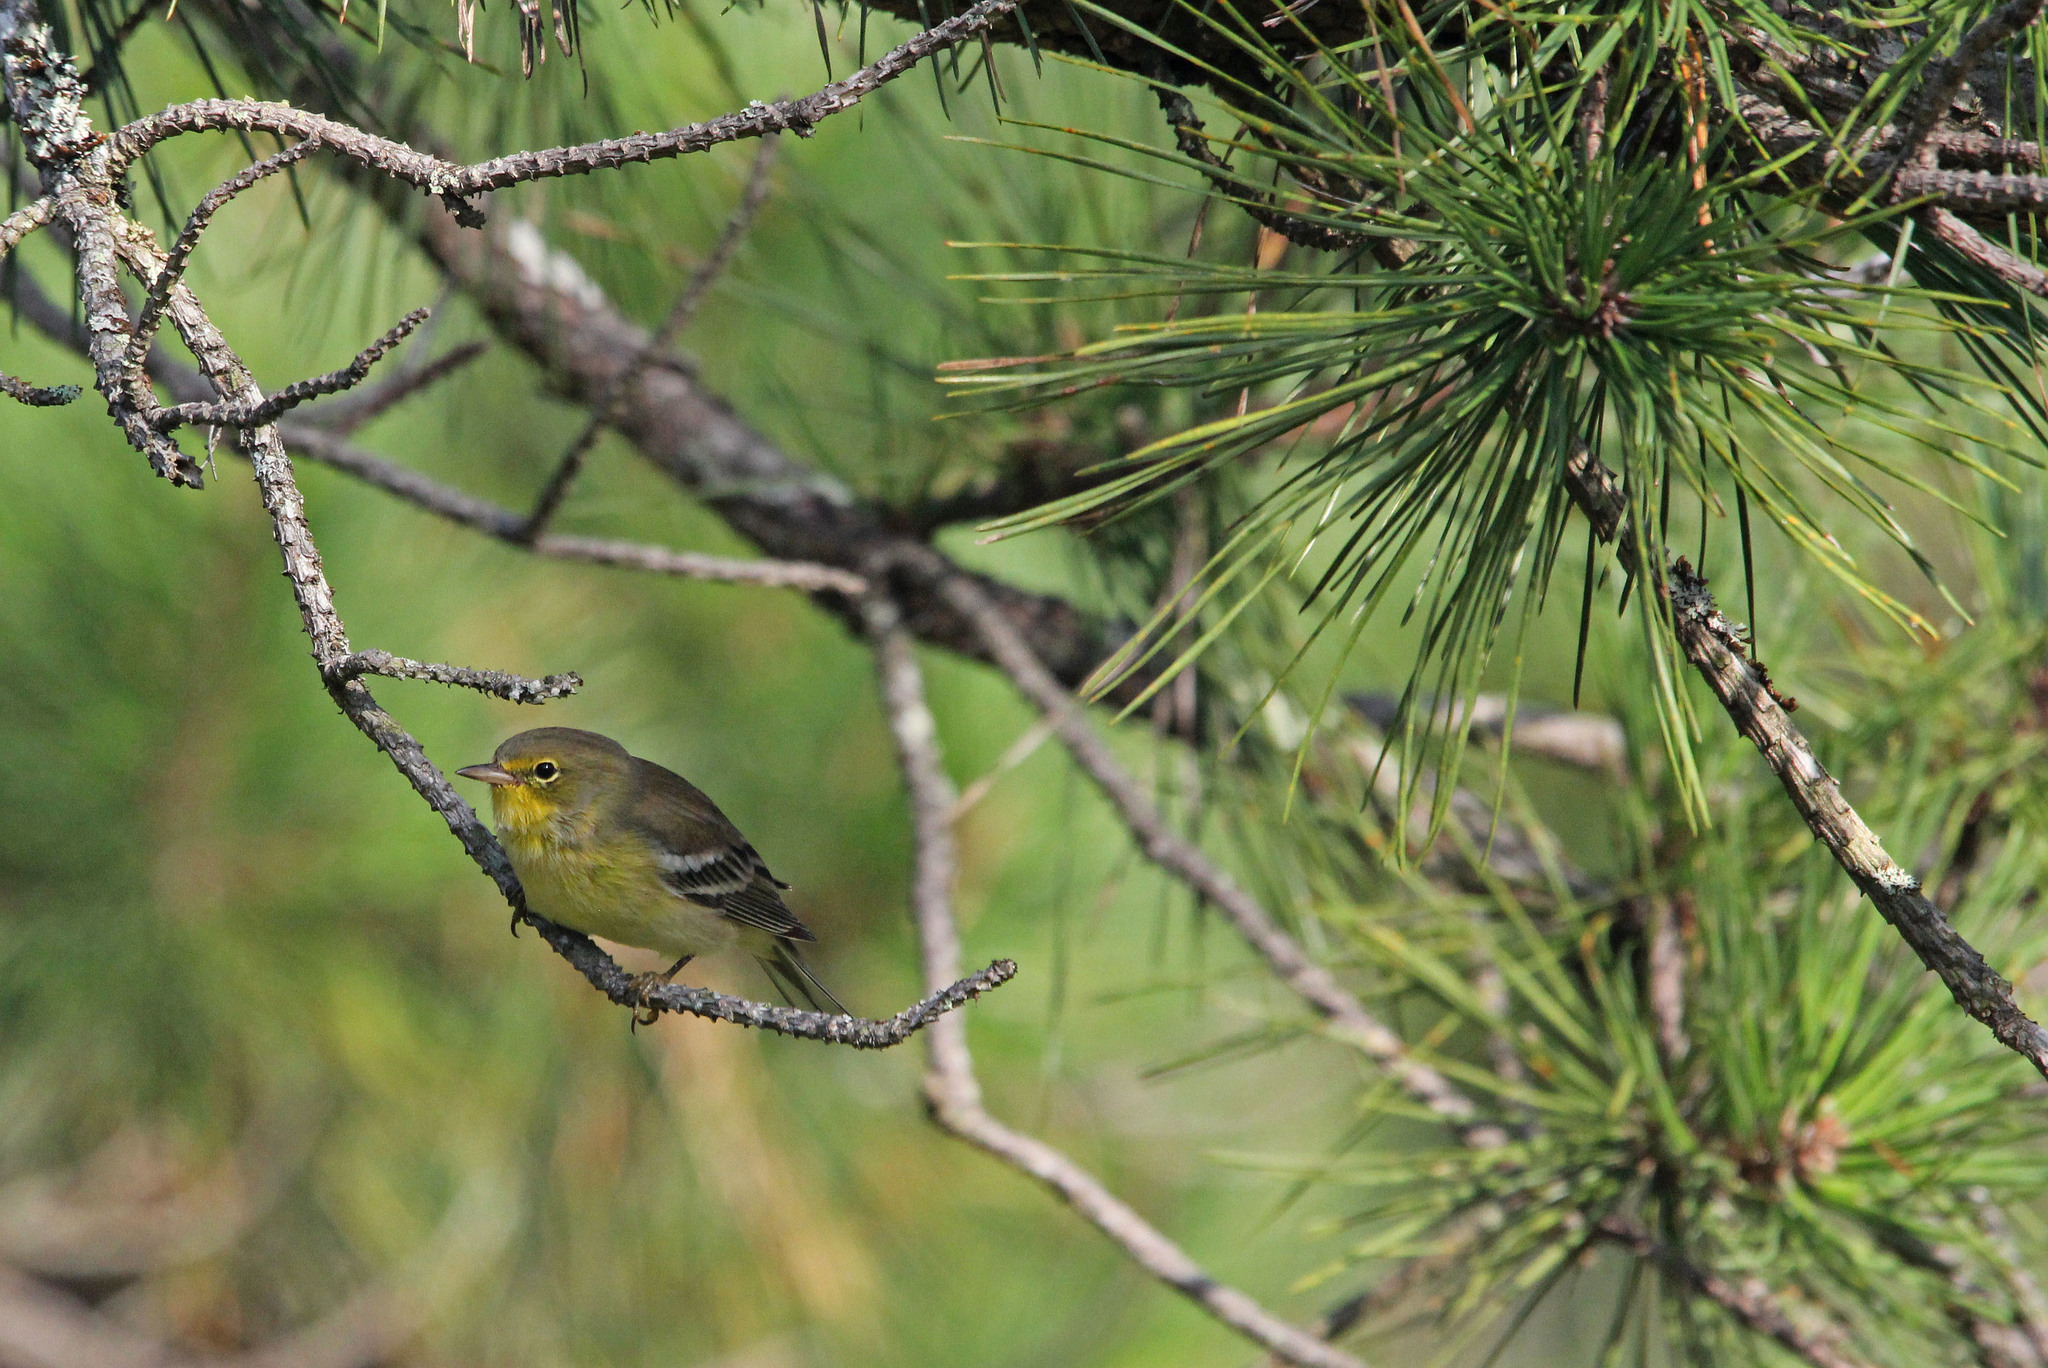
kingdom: Animalia
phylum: Chordata
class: Aves
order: Passeriformes
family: Parulidae
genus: Setophaga
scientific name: Setophaga pinus
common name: Pine warbler
